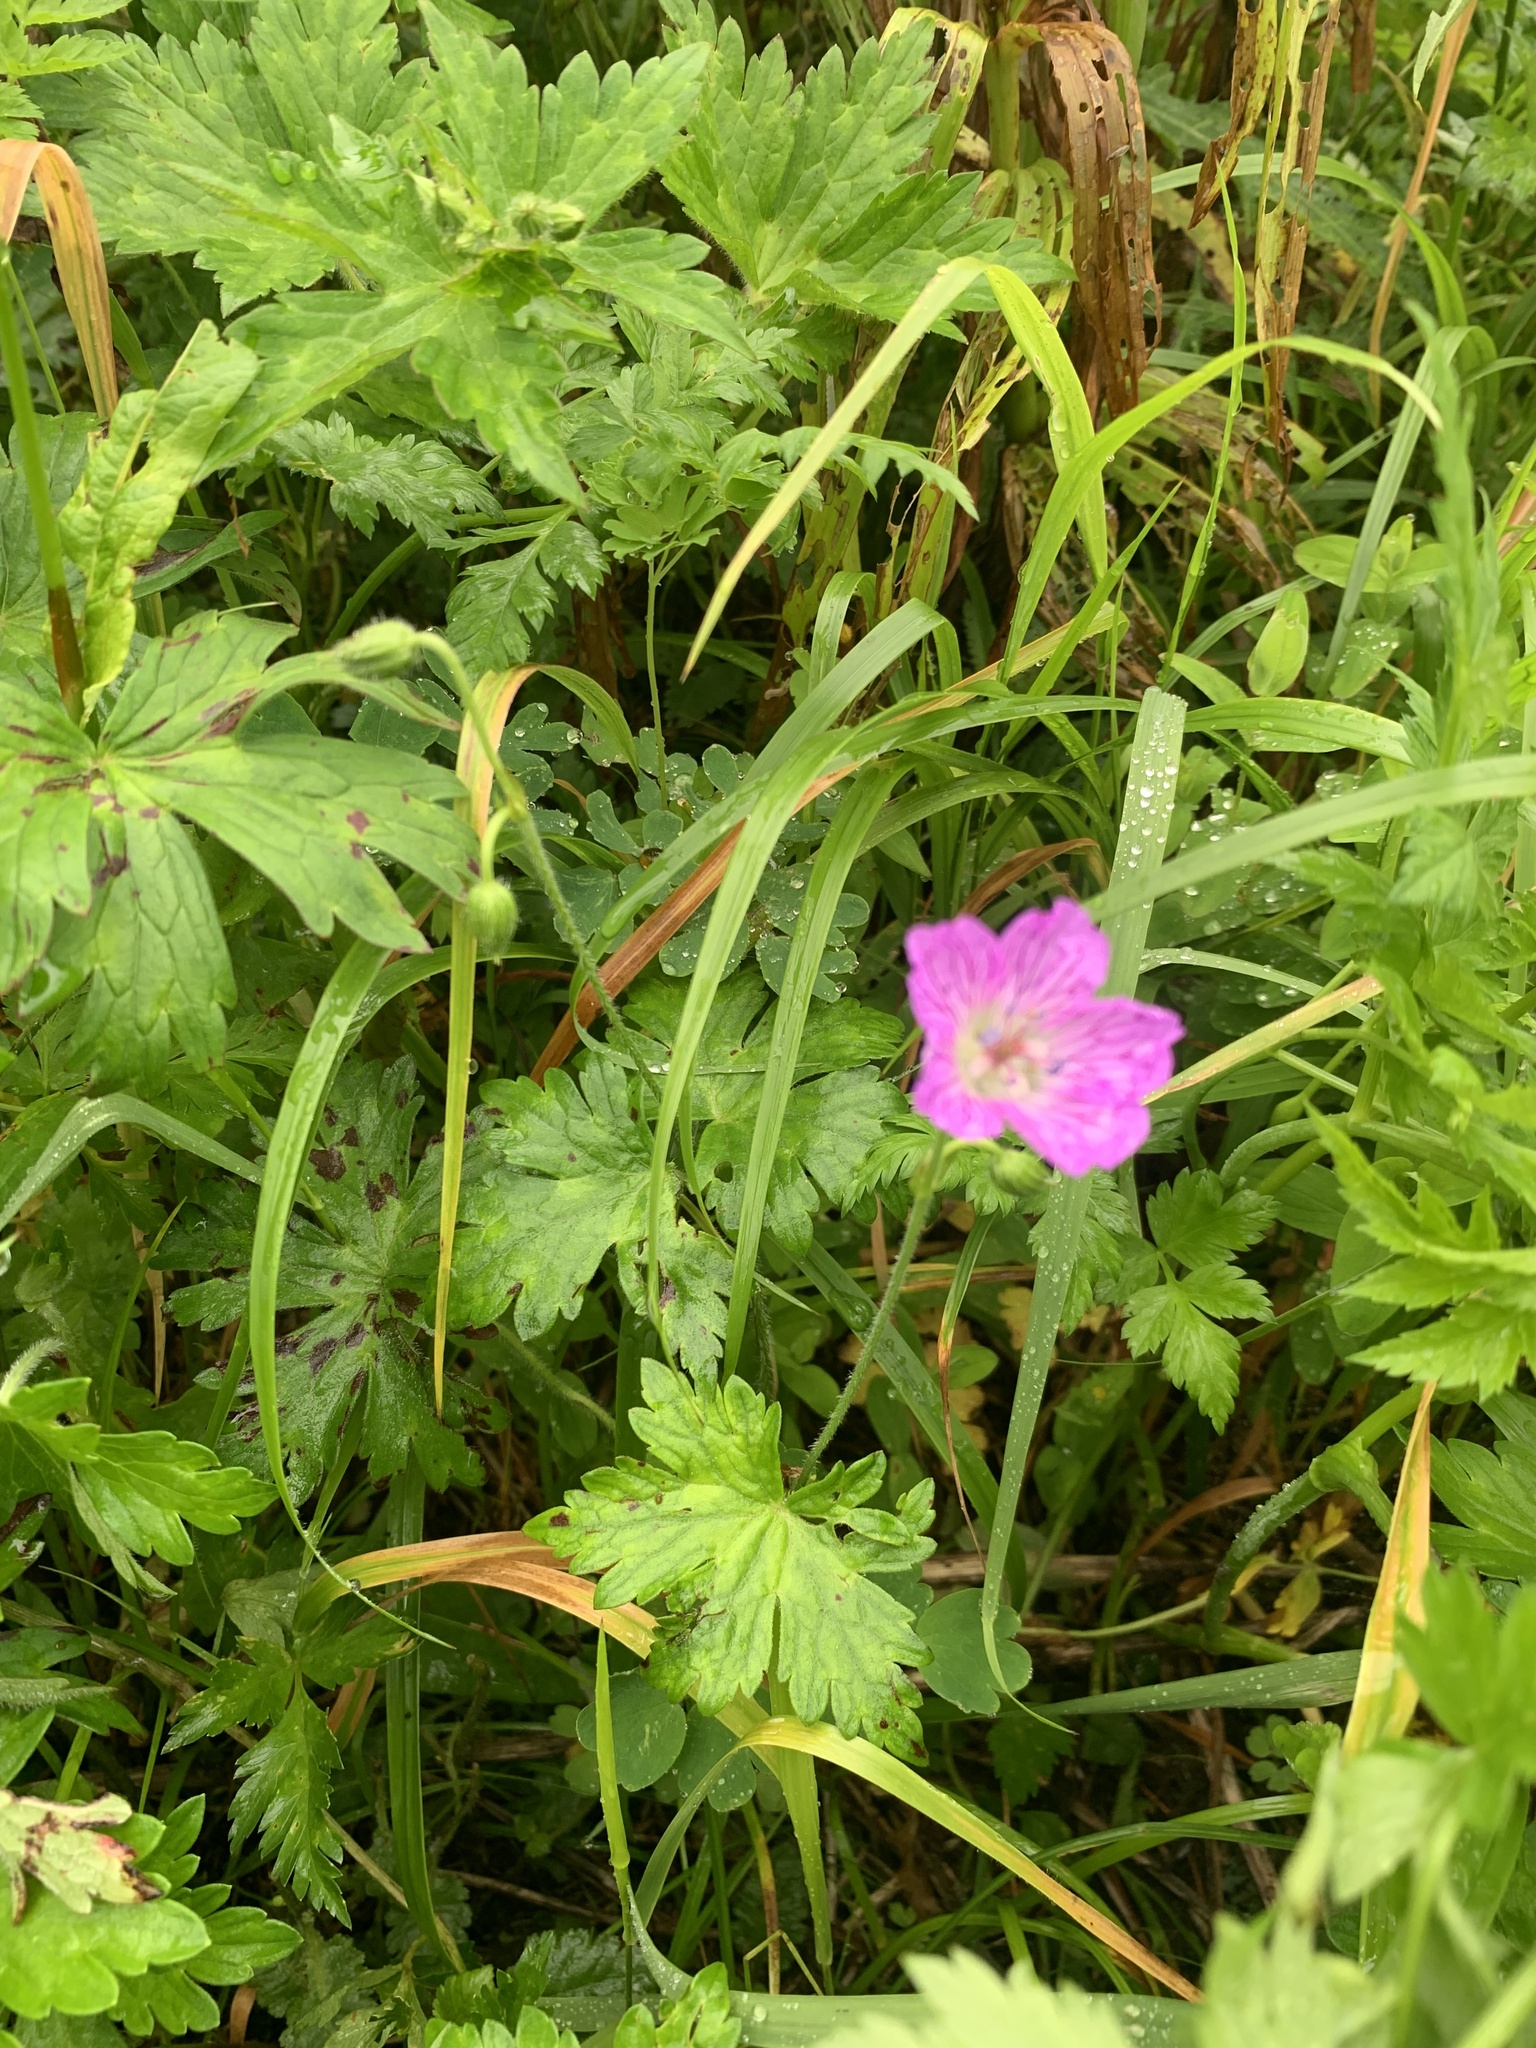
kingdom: Plantae
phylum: Tracheophyta
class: Magnoliopsida
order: Geraniales
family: Geraniaceae
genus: Geranium
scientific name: Geranium yesoense
